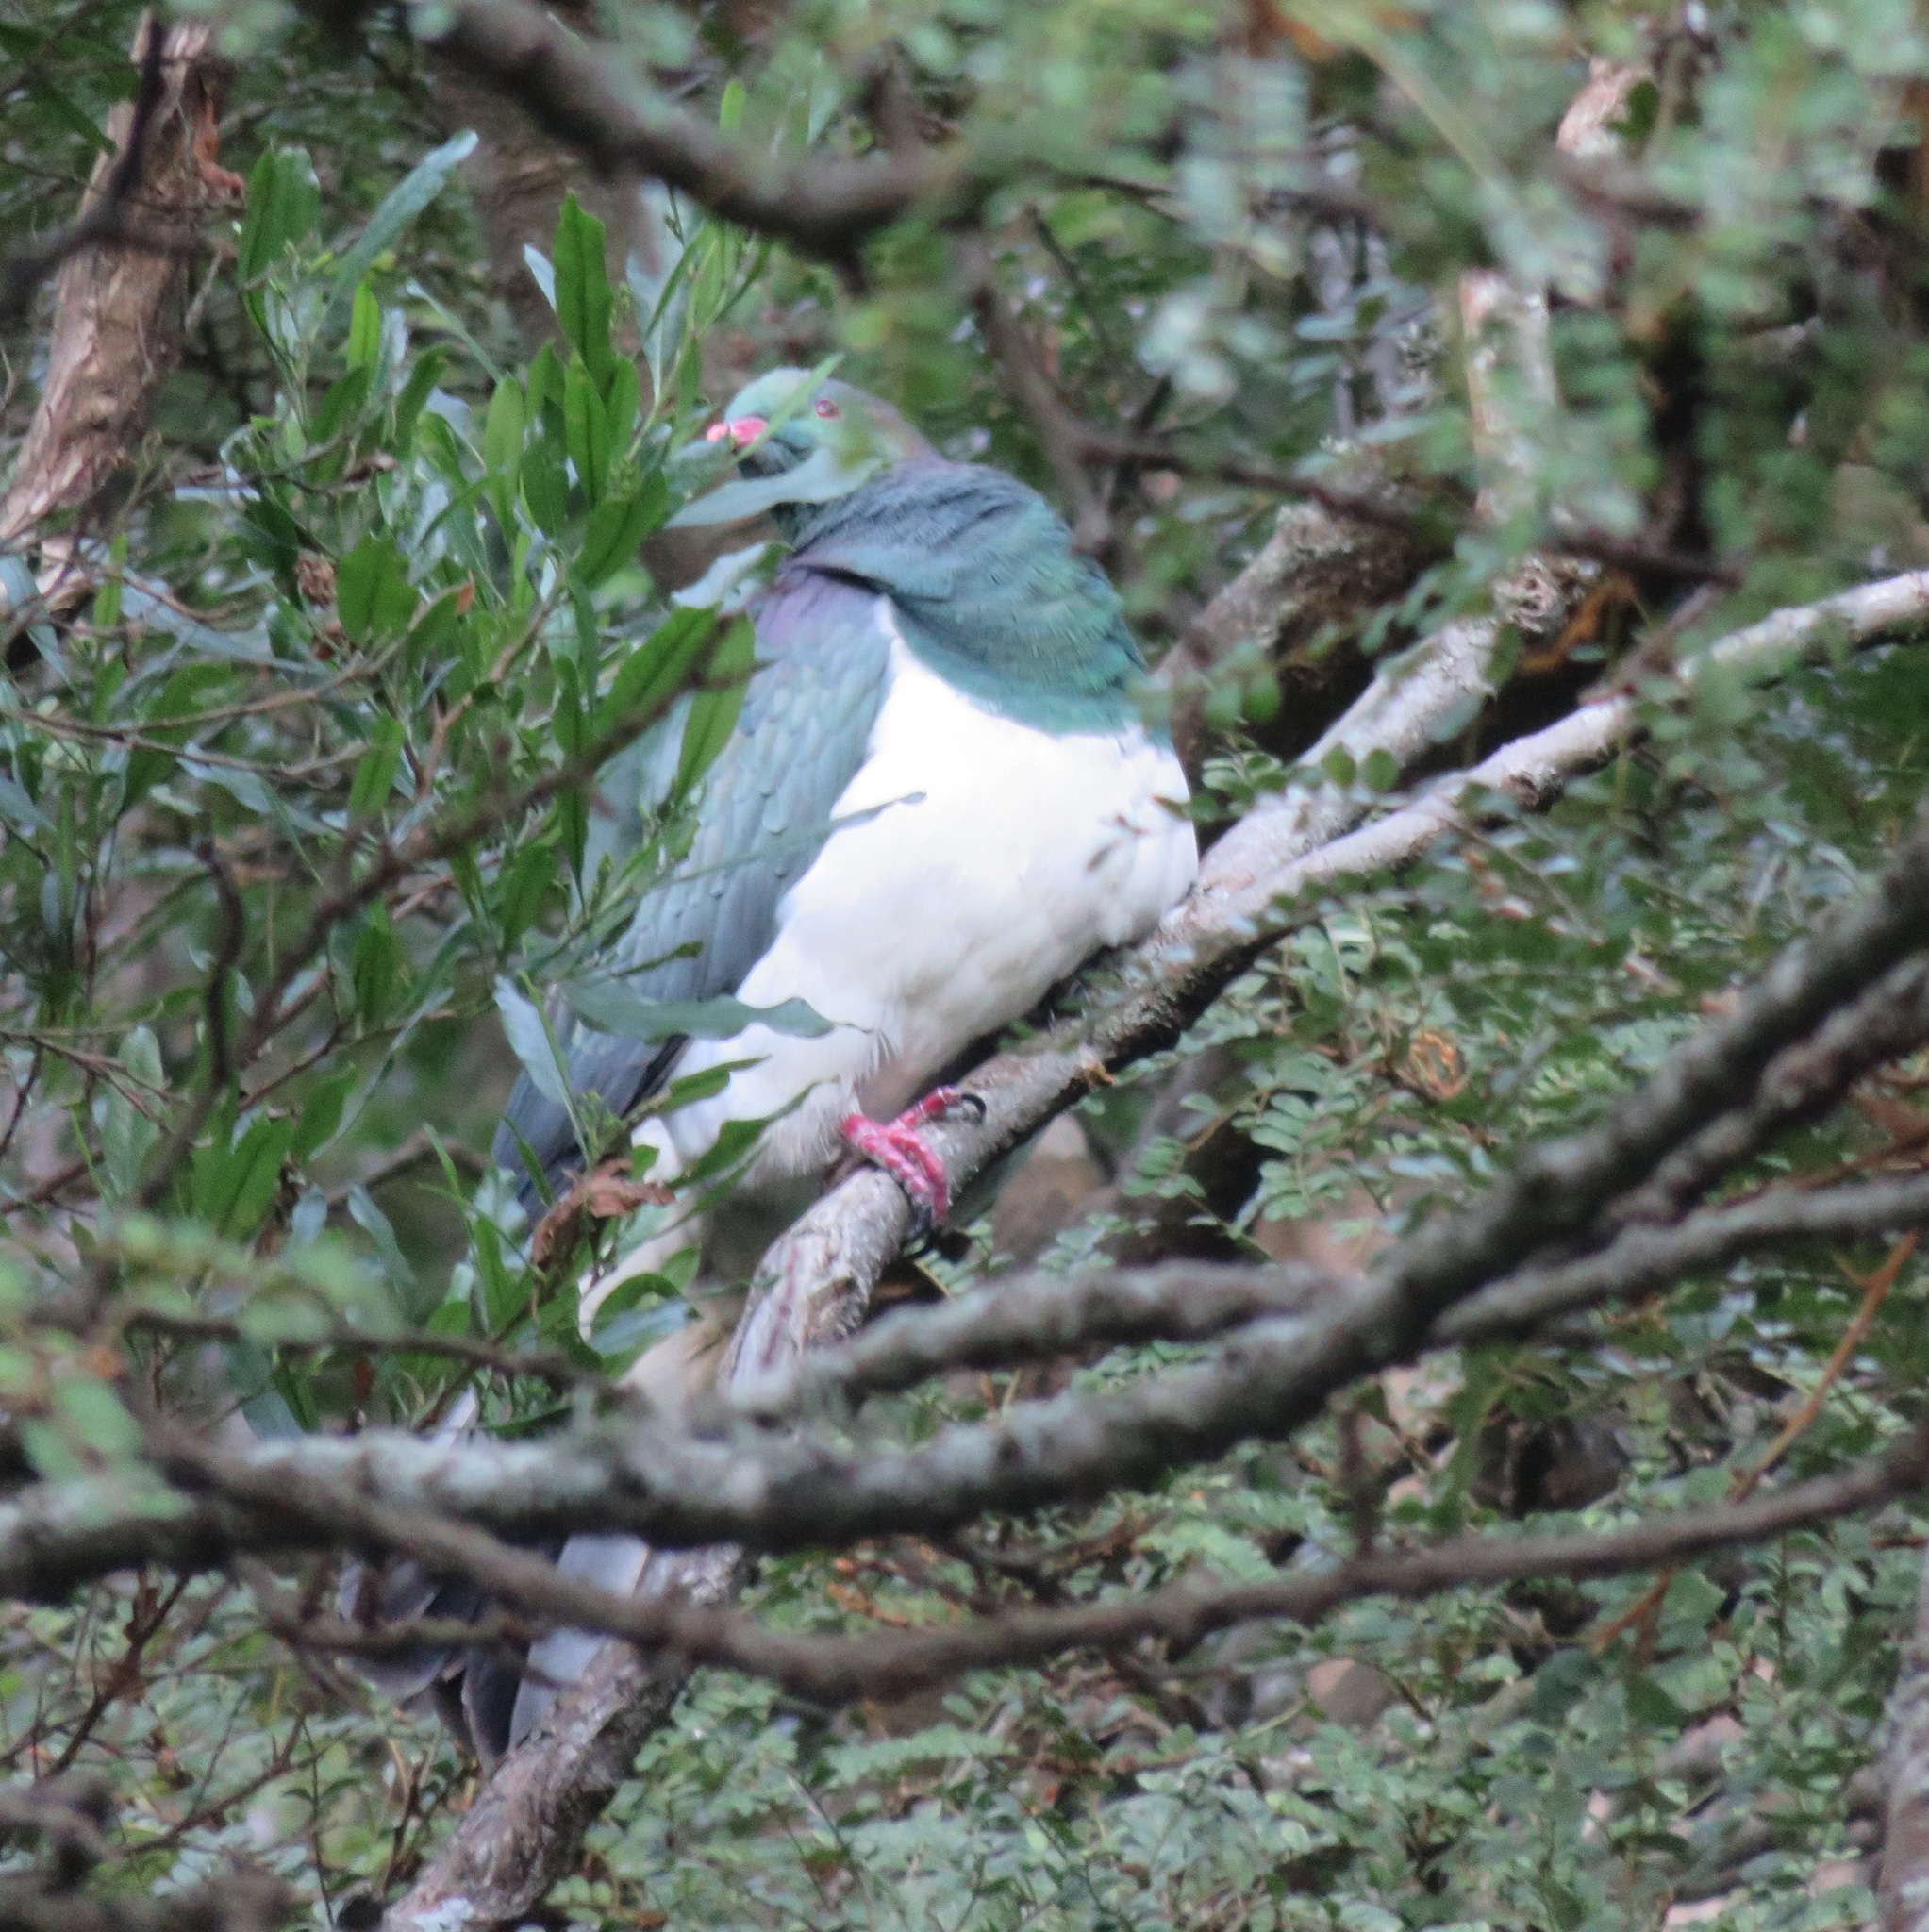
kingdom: Animalia
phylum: Chordata
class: Aves
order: Columbiformes
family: Columbidae
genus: Hemiphaga
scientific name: Hemiphaga novaeseelandiae
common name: New zealand pigeon
